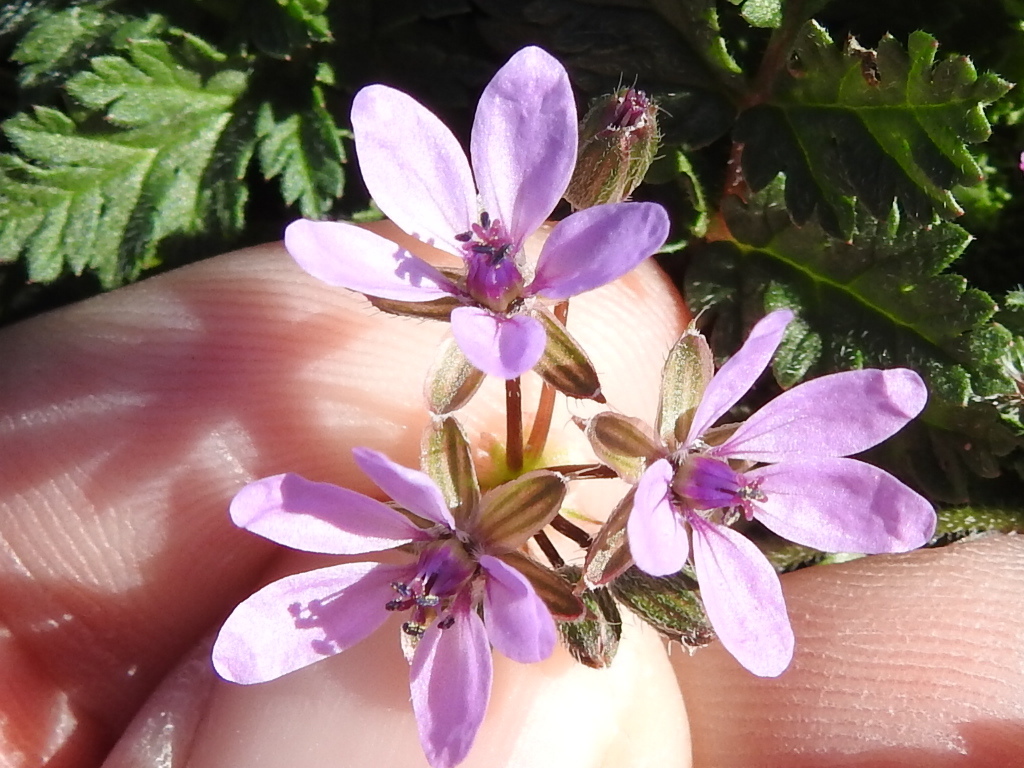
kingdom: Plantae
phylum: Tracheophyta
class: Magnoliopsida
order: Geraniales
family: Geraniaceae
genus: Erodium
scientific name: Erodium cicutarium
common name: Common stork's-bill
